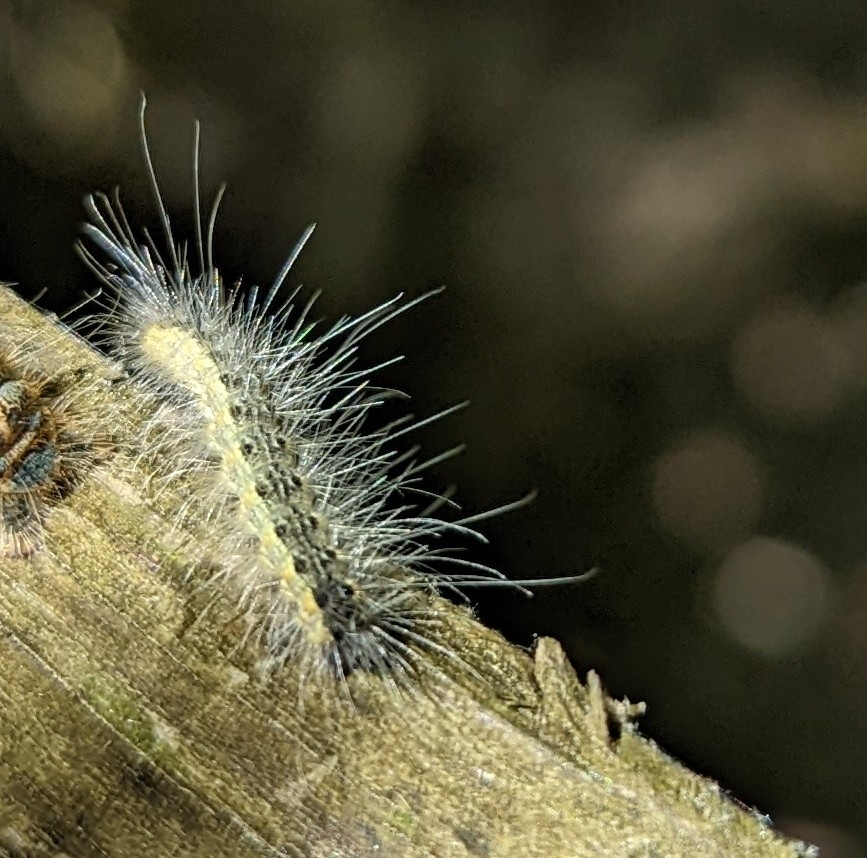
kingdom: Animalia
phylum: Arthropoda
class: Insecta
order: Lepidoptera
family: Erebidae
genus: Hyphantria
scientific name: Hyphantria cunea
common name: American white moth
